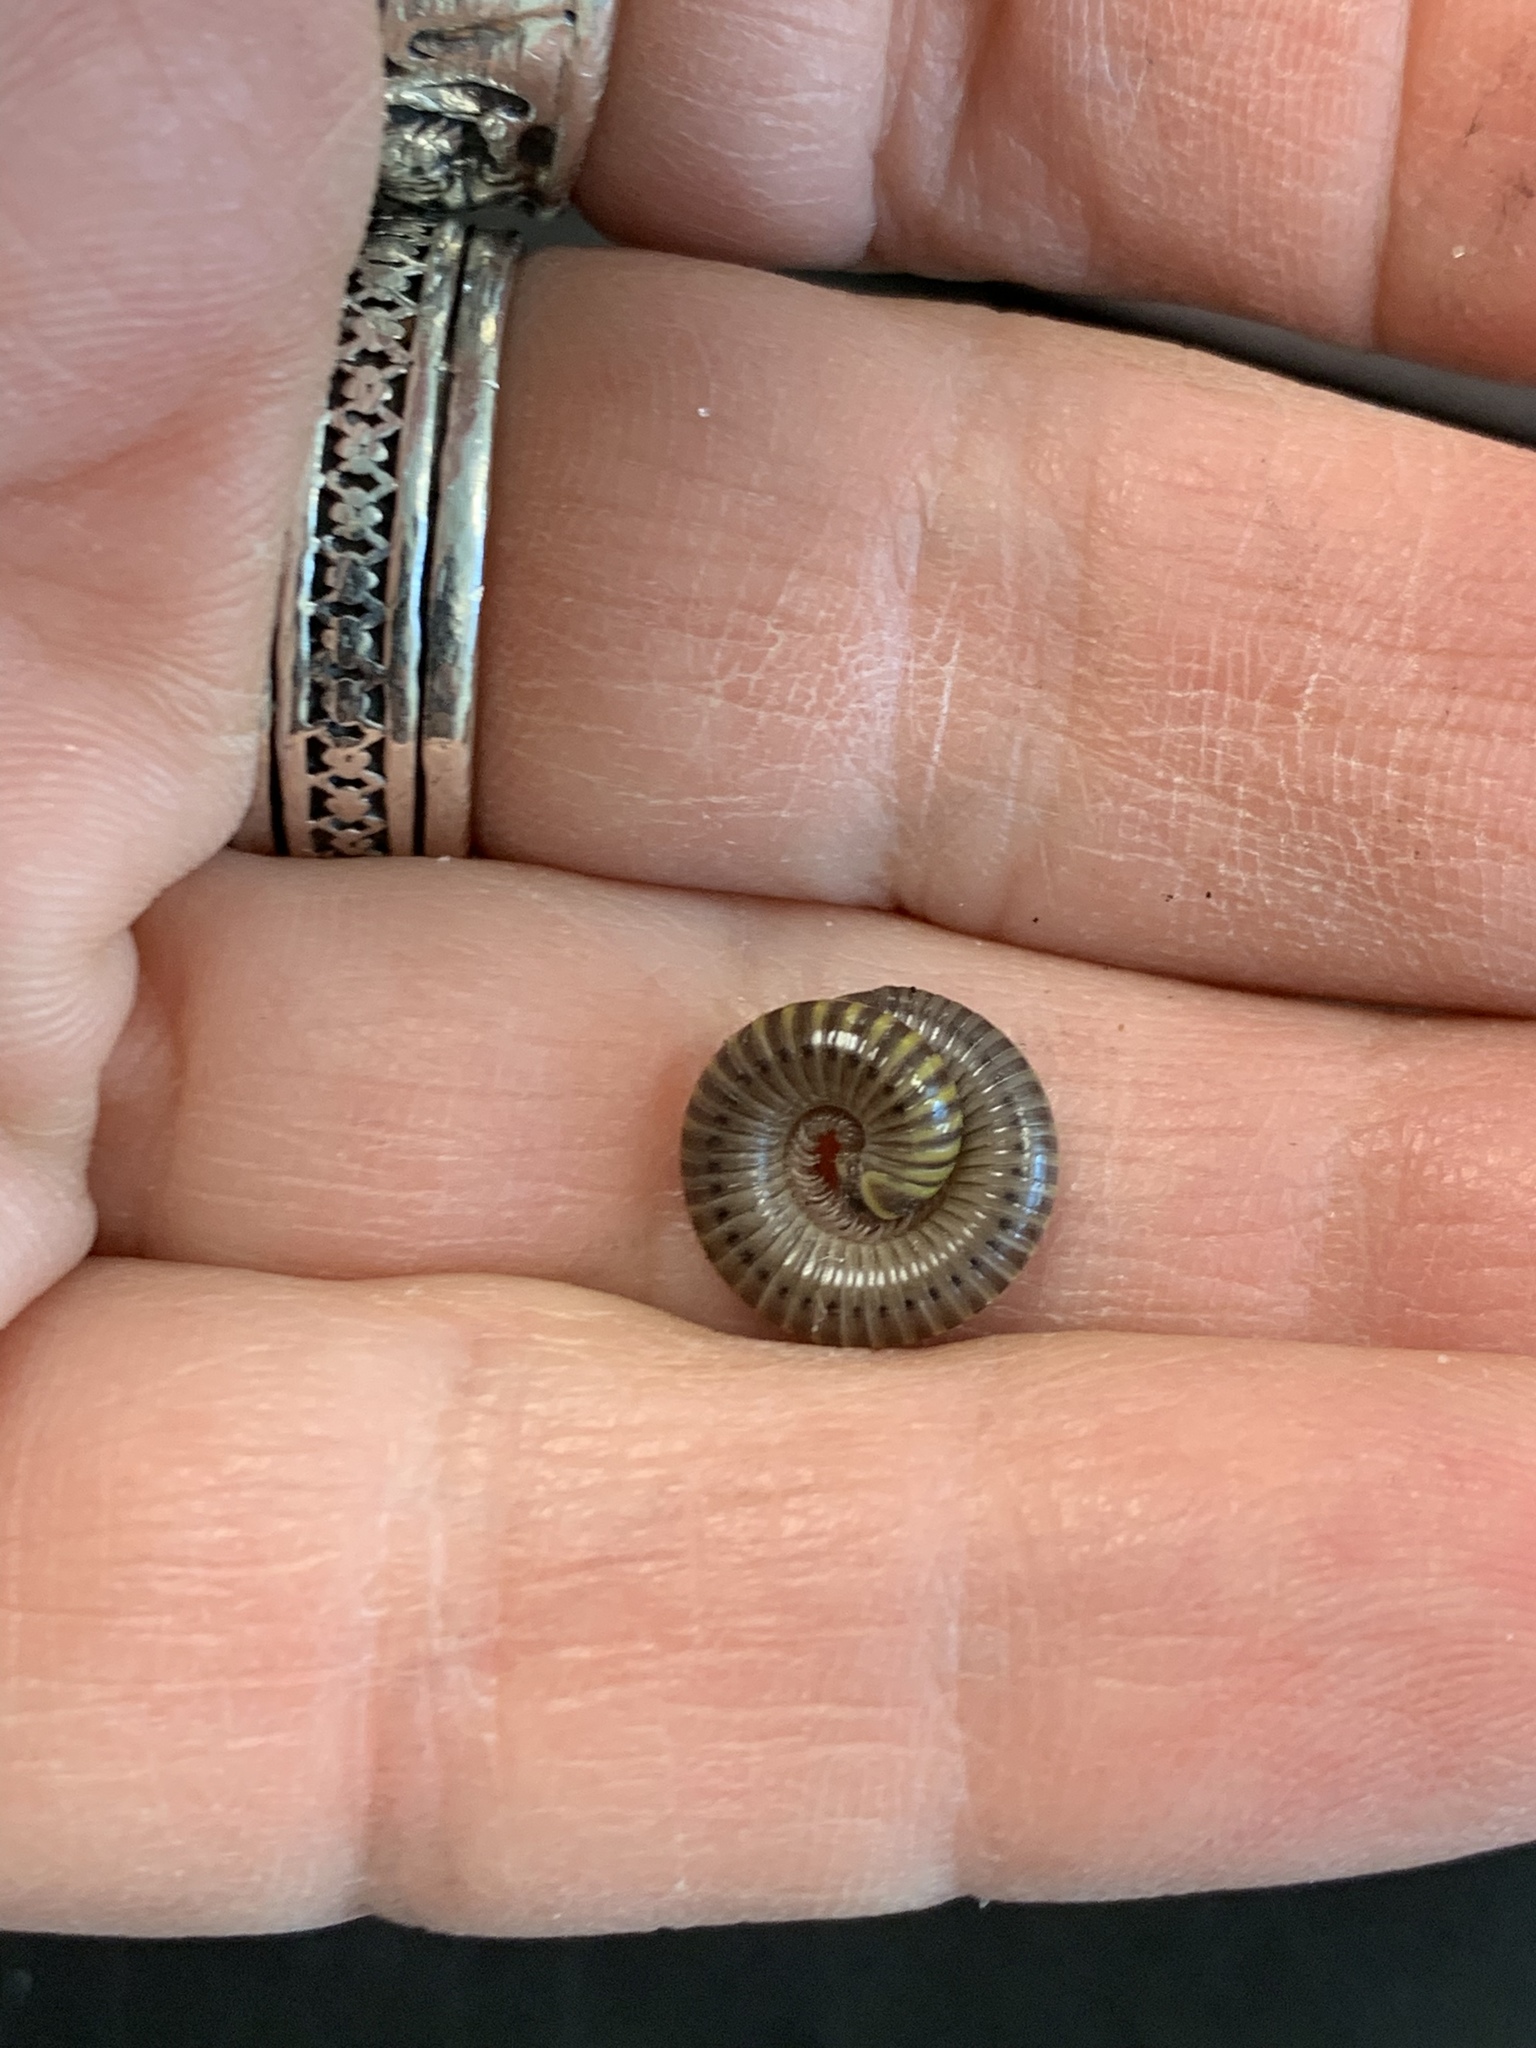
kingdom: Animalia
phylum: Arthropoda
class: Diplopoda
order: Spirobolida
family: Rhinocricidae
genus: Anadenobolus
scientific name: Anadenobolus monilicornis
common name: Caribbean millipede
